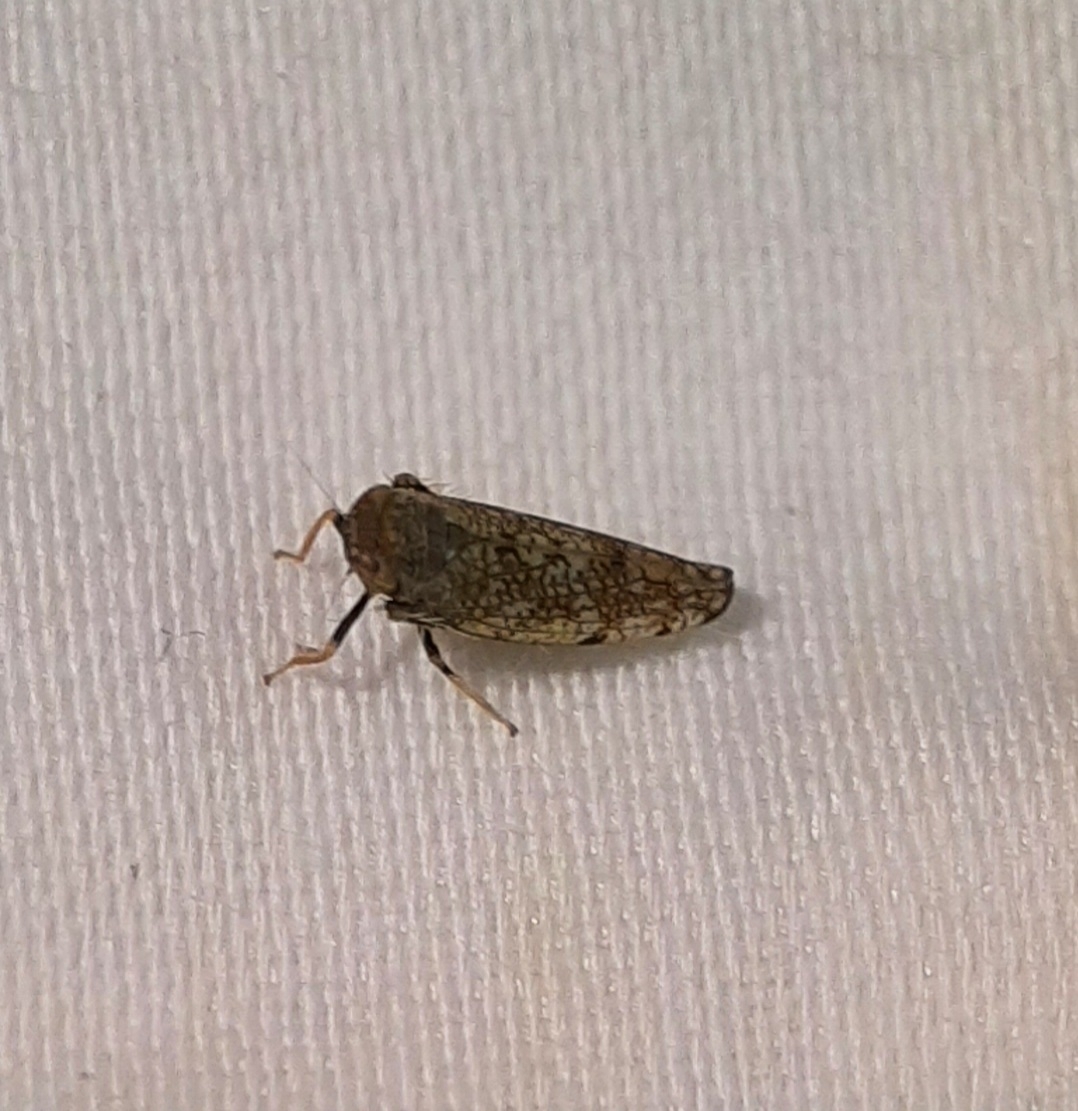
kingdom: Animalia
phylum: Arthropoda
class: Insecta
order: Hemiptera
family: Cicadellidae
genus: Orientus
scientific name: Orientus ishidae
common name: Japanese leafhopper
